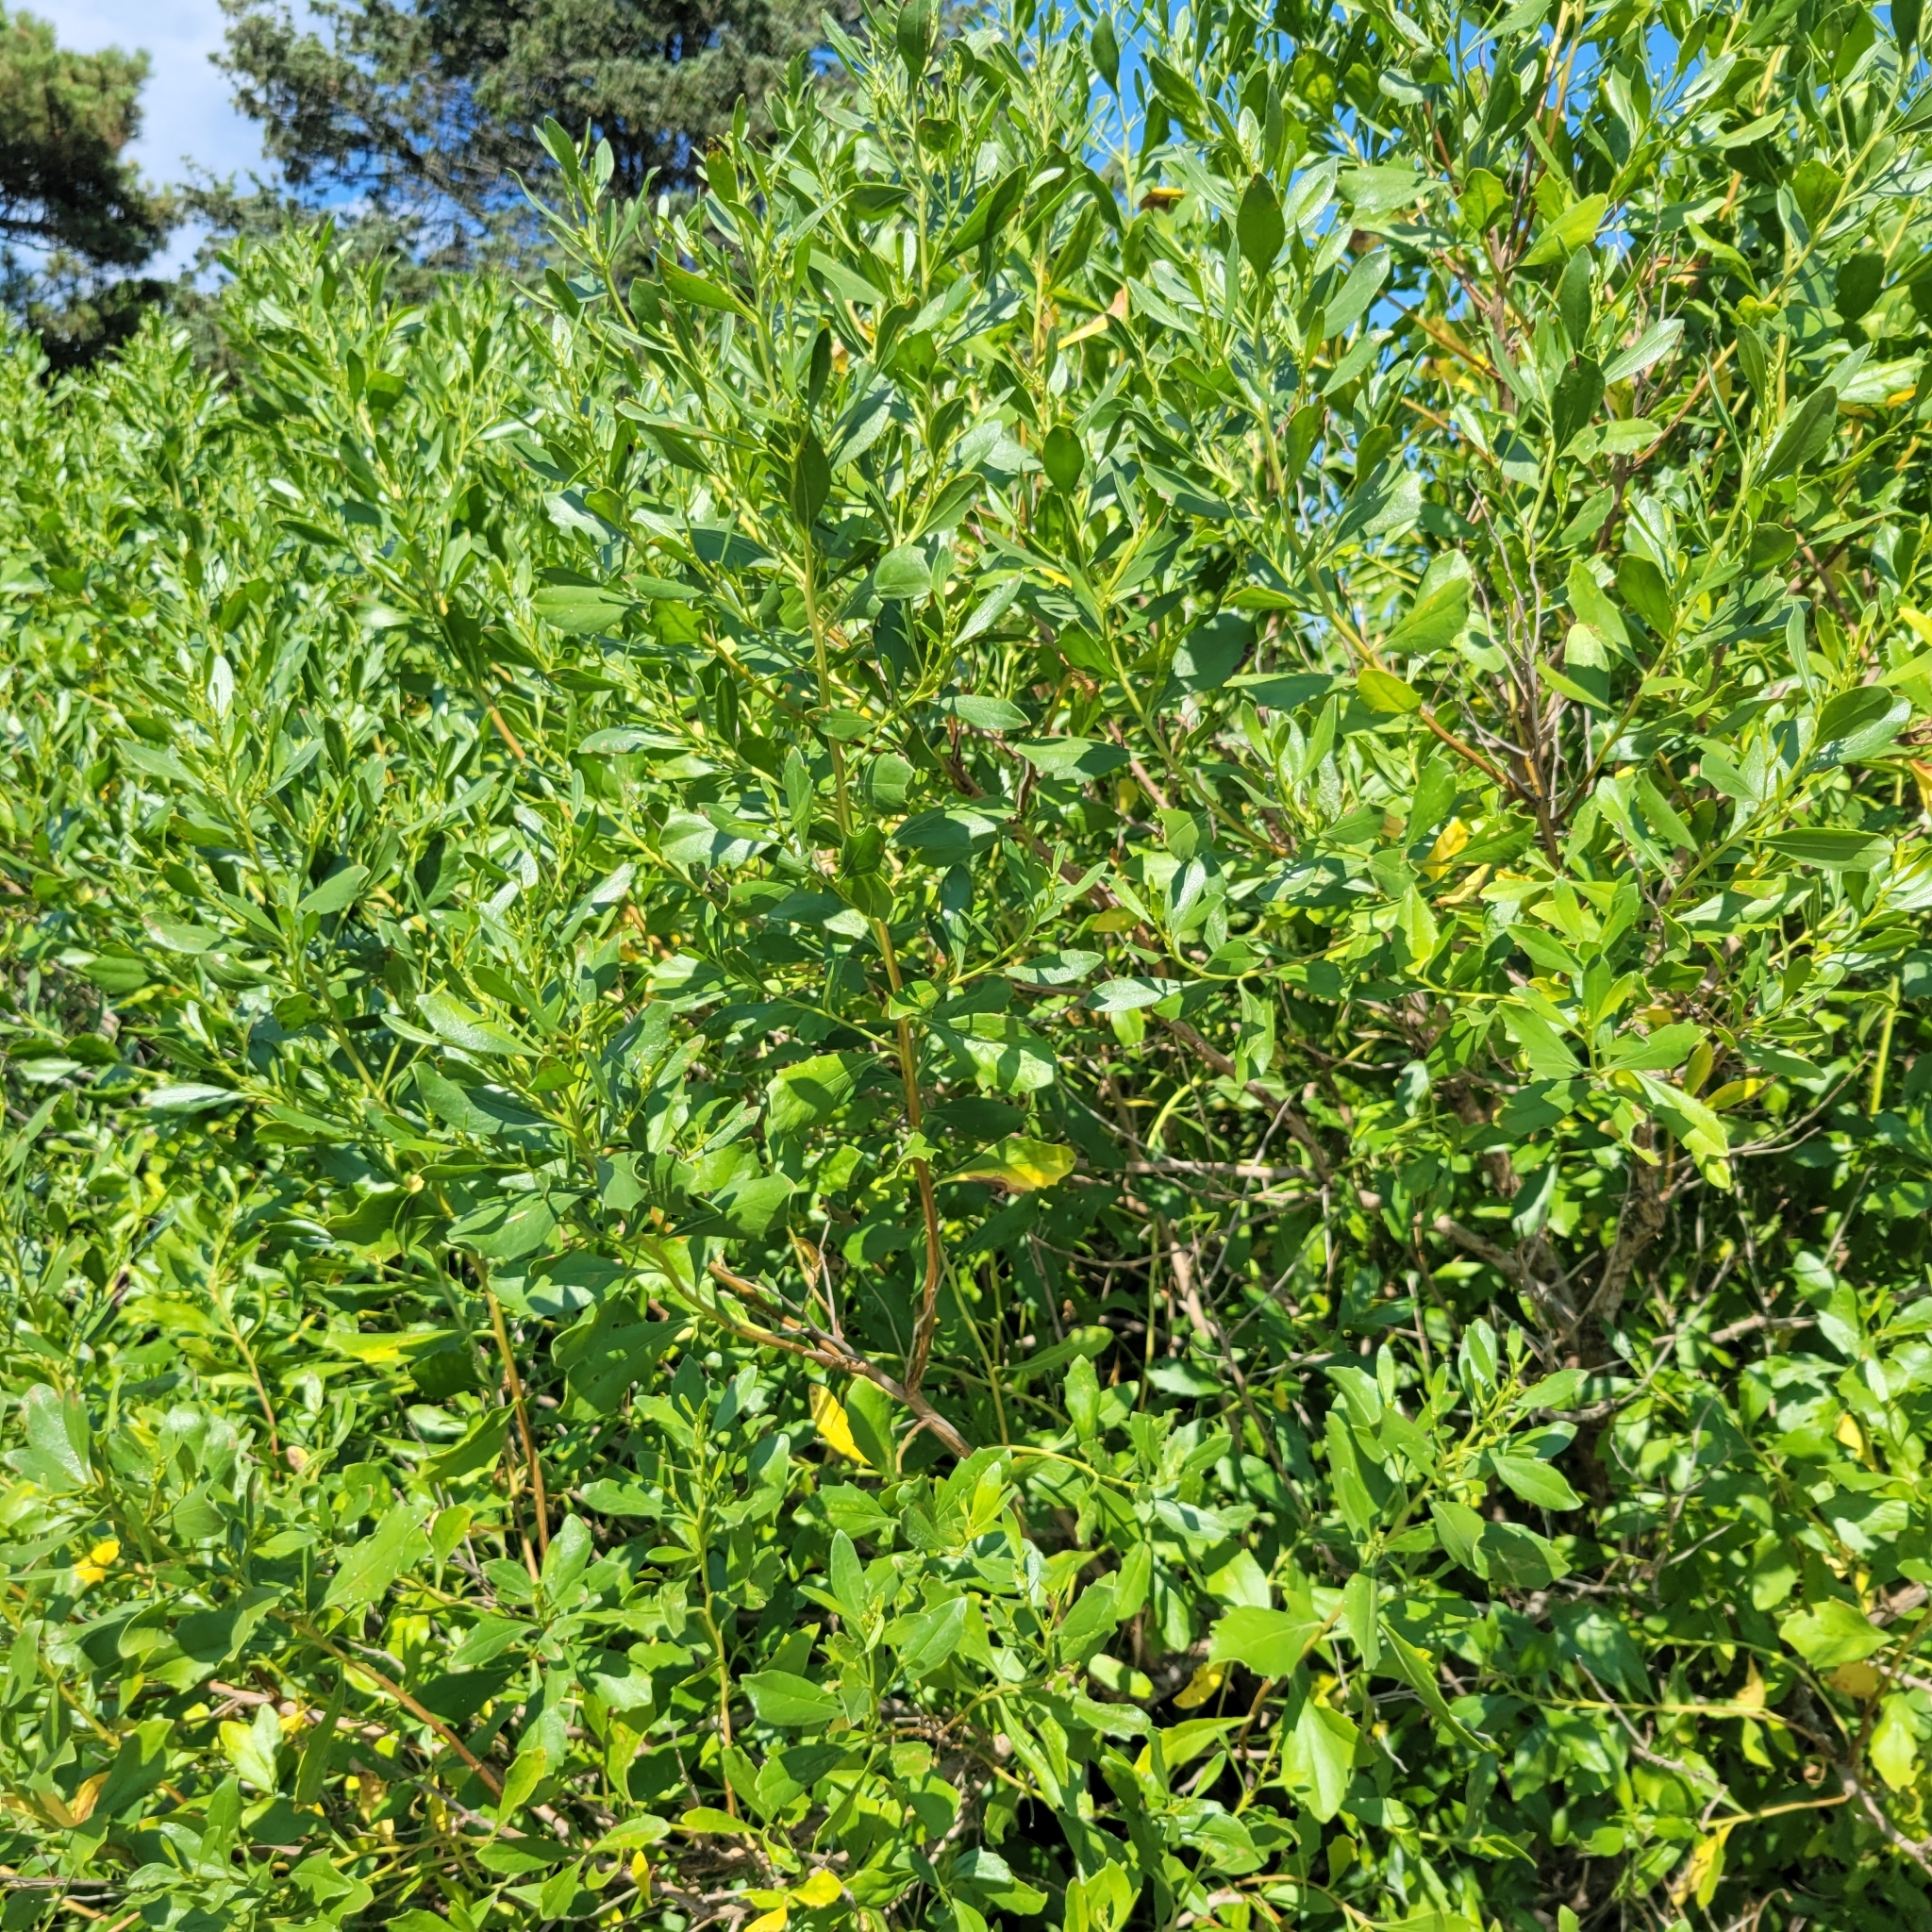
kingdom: Plantae
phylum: Tracheophyta
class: Magnoliopsida
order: Asterales
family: Asteraceae
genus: Baccharis
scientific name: Baccharis halimifolia
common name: Eastern baccharis
